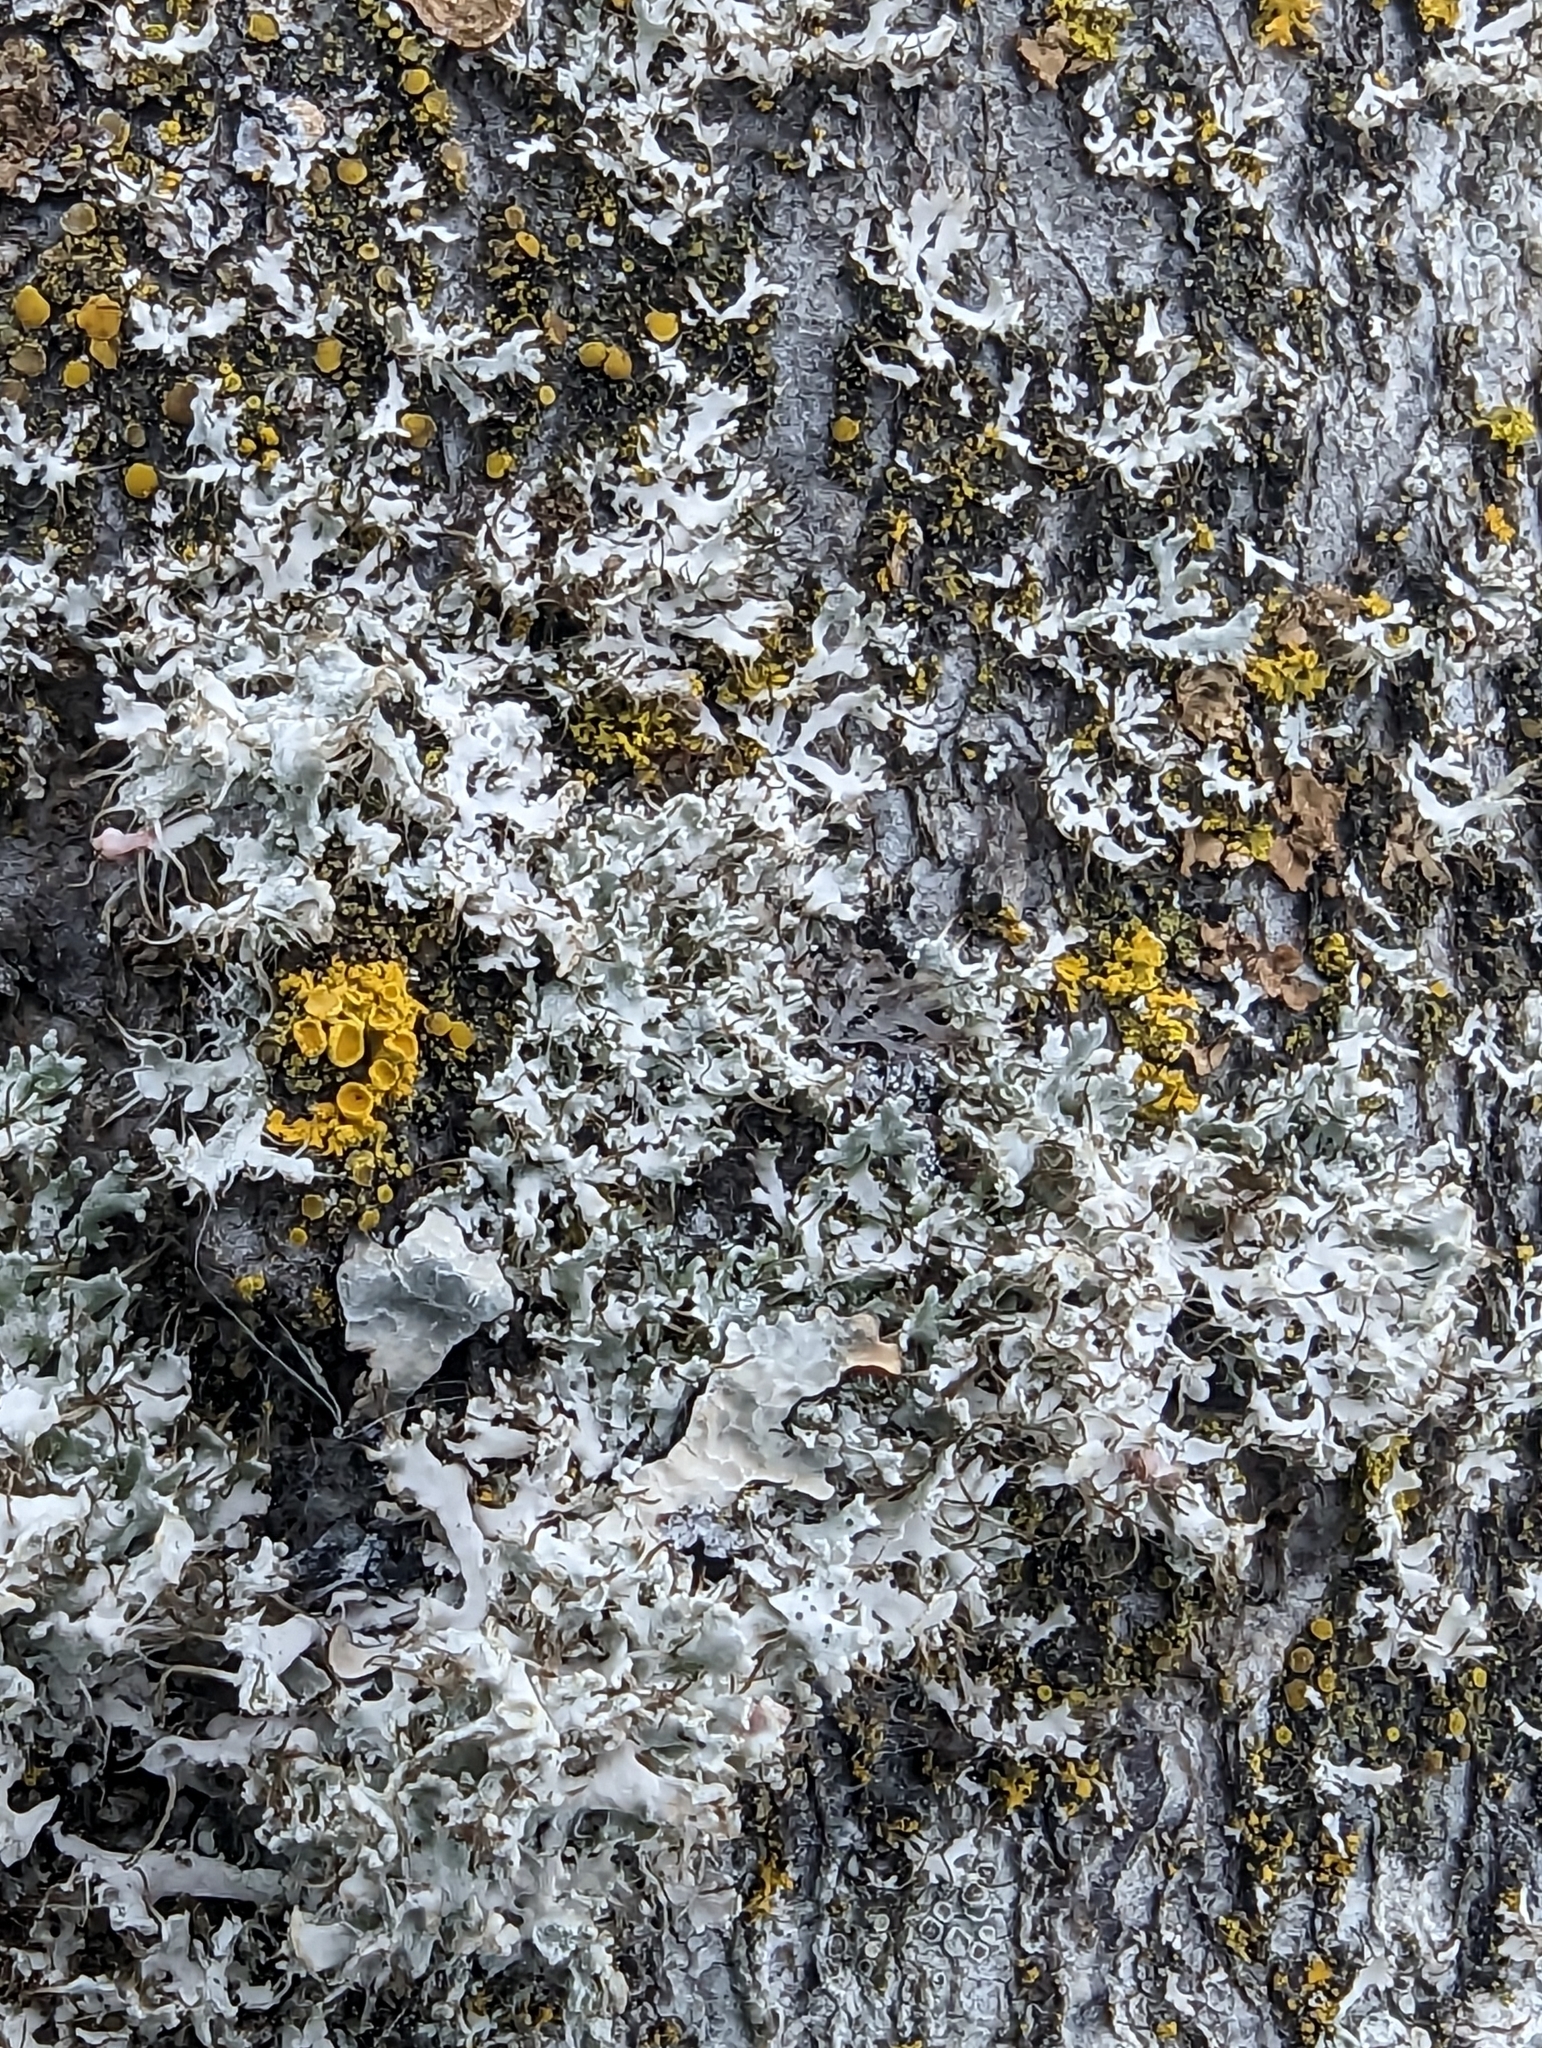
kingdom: Fungi
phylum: Ascomycota
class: Lecanoromycetes
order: Caliciales
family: Physciaceae
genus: Physcia
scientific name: Physcia adscendens
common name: Hooded rosette lichen
